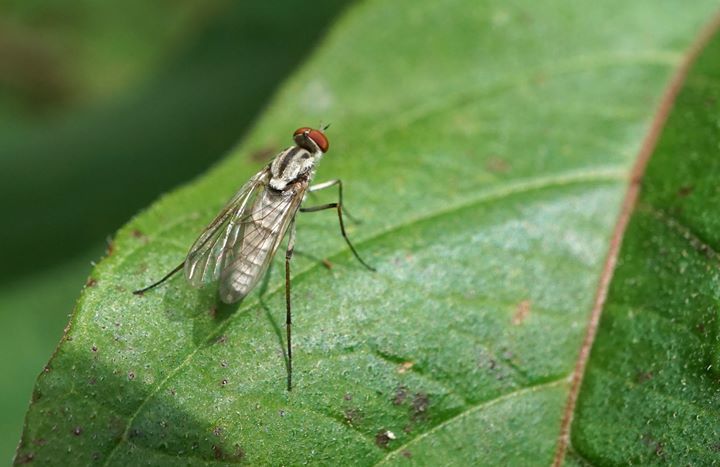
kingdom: Animalia
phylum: Arthropoda
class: Insecta
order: Diptera
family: Therevidae
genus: Penniverpa
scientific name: Penniverpa festina
